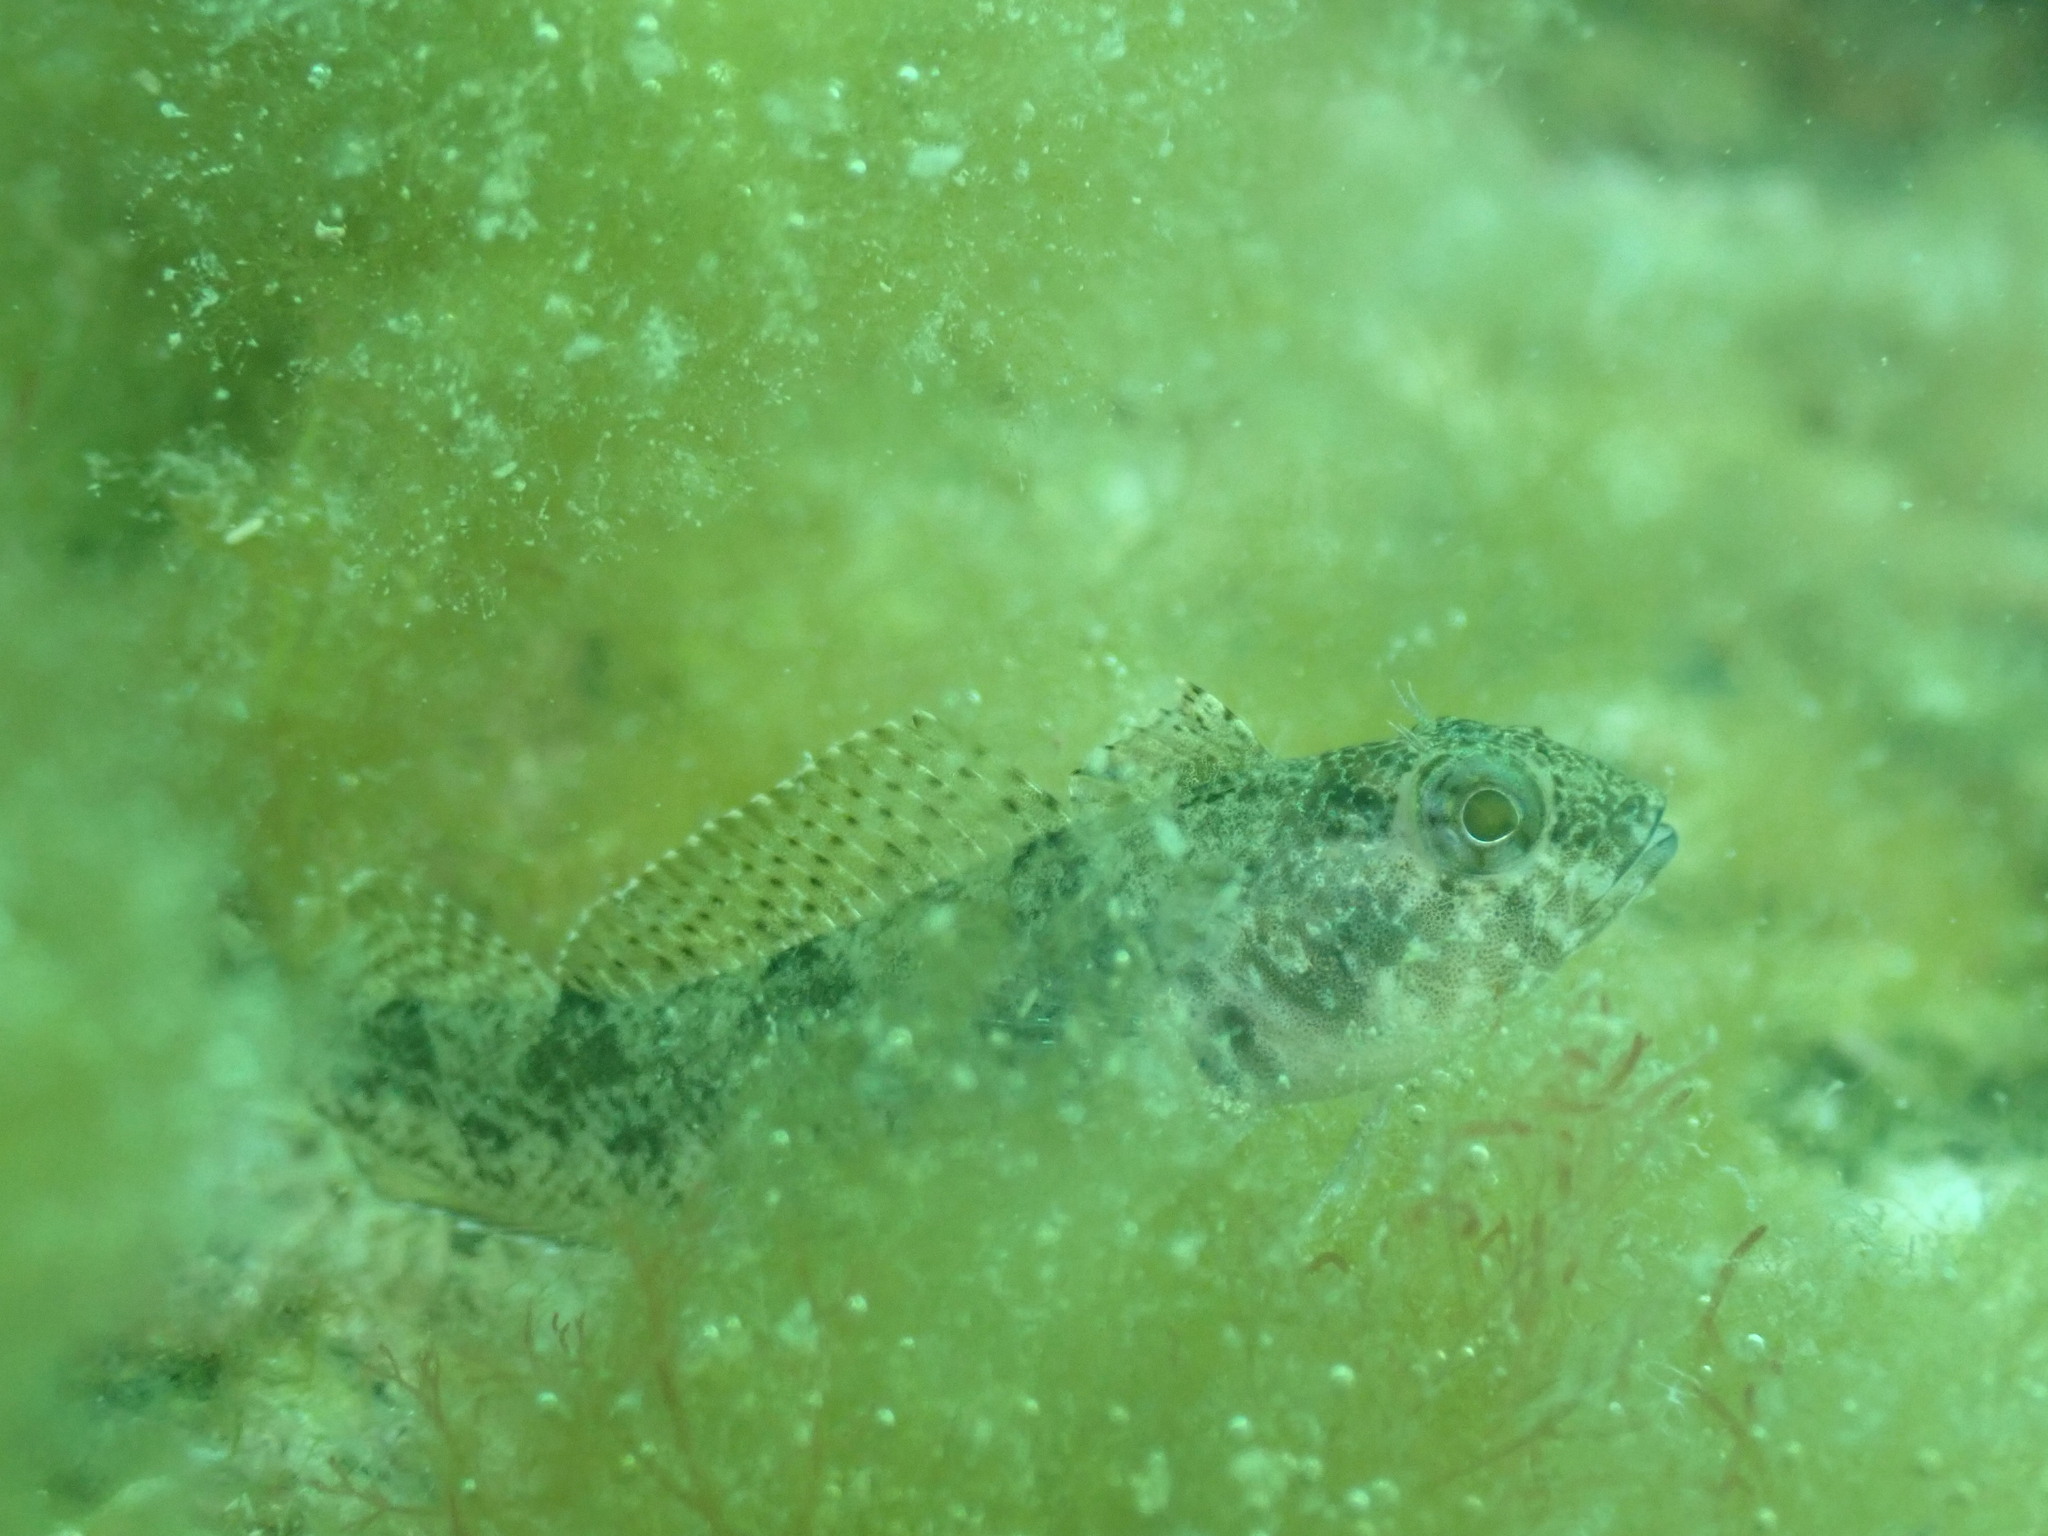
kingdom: Animalia
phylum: Chordata
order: Perciformes
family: Tripterygiidae
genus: Forsterygion
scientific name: Forsterygion capito
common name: Spotted robust triplefin
